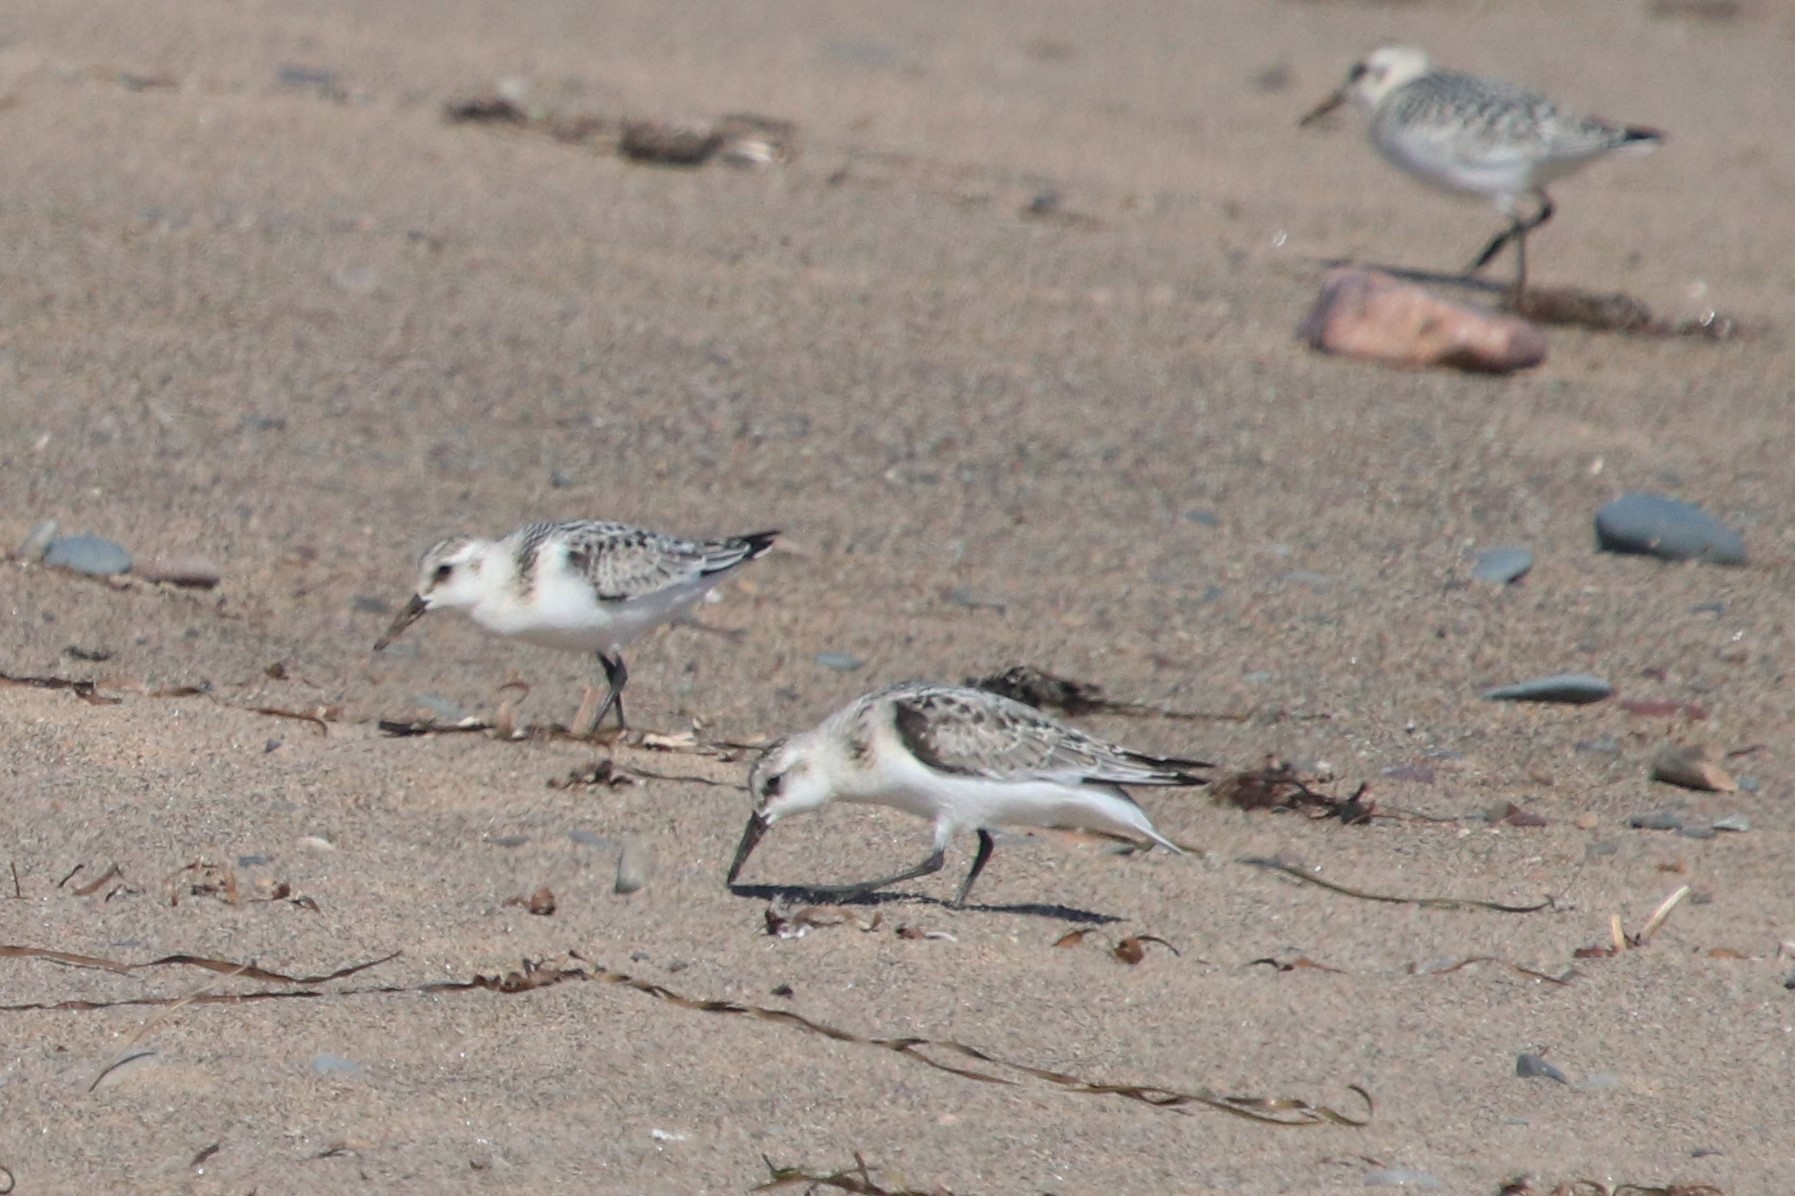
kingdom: Animalia
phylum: Chordata
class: Aves
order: Charadriiformes
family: Scolopacidae
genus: Calidris
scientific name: Calidris alba
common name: Sanderling
